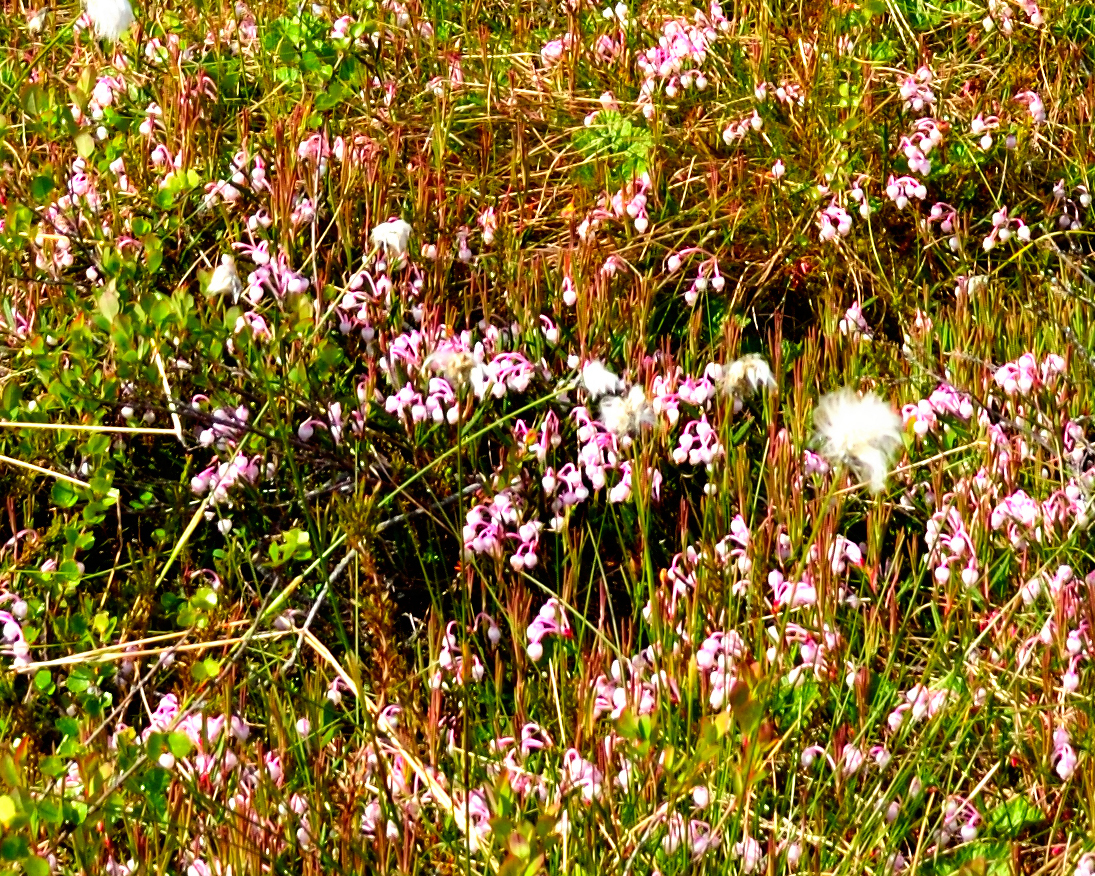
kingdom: Plantae
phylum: Tracheophyta
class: Magnoliopsida
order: Ericales
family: Ericaceae
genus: Andromeda
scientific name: Andromeda polifolia
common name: Bog-rosemary
